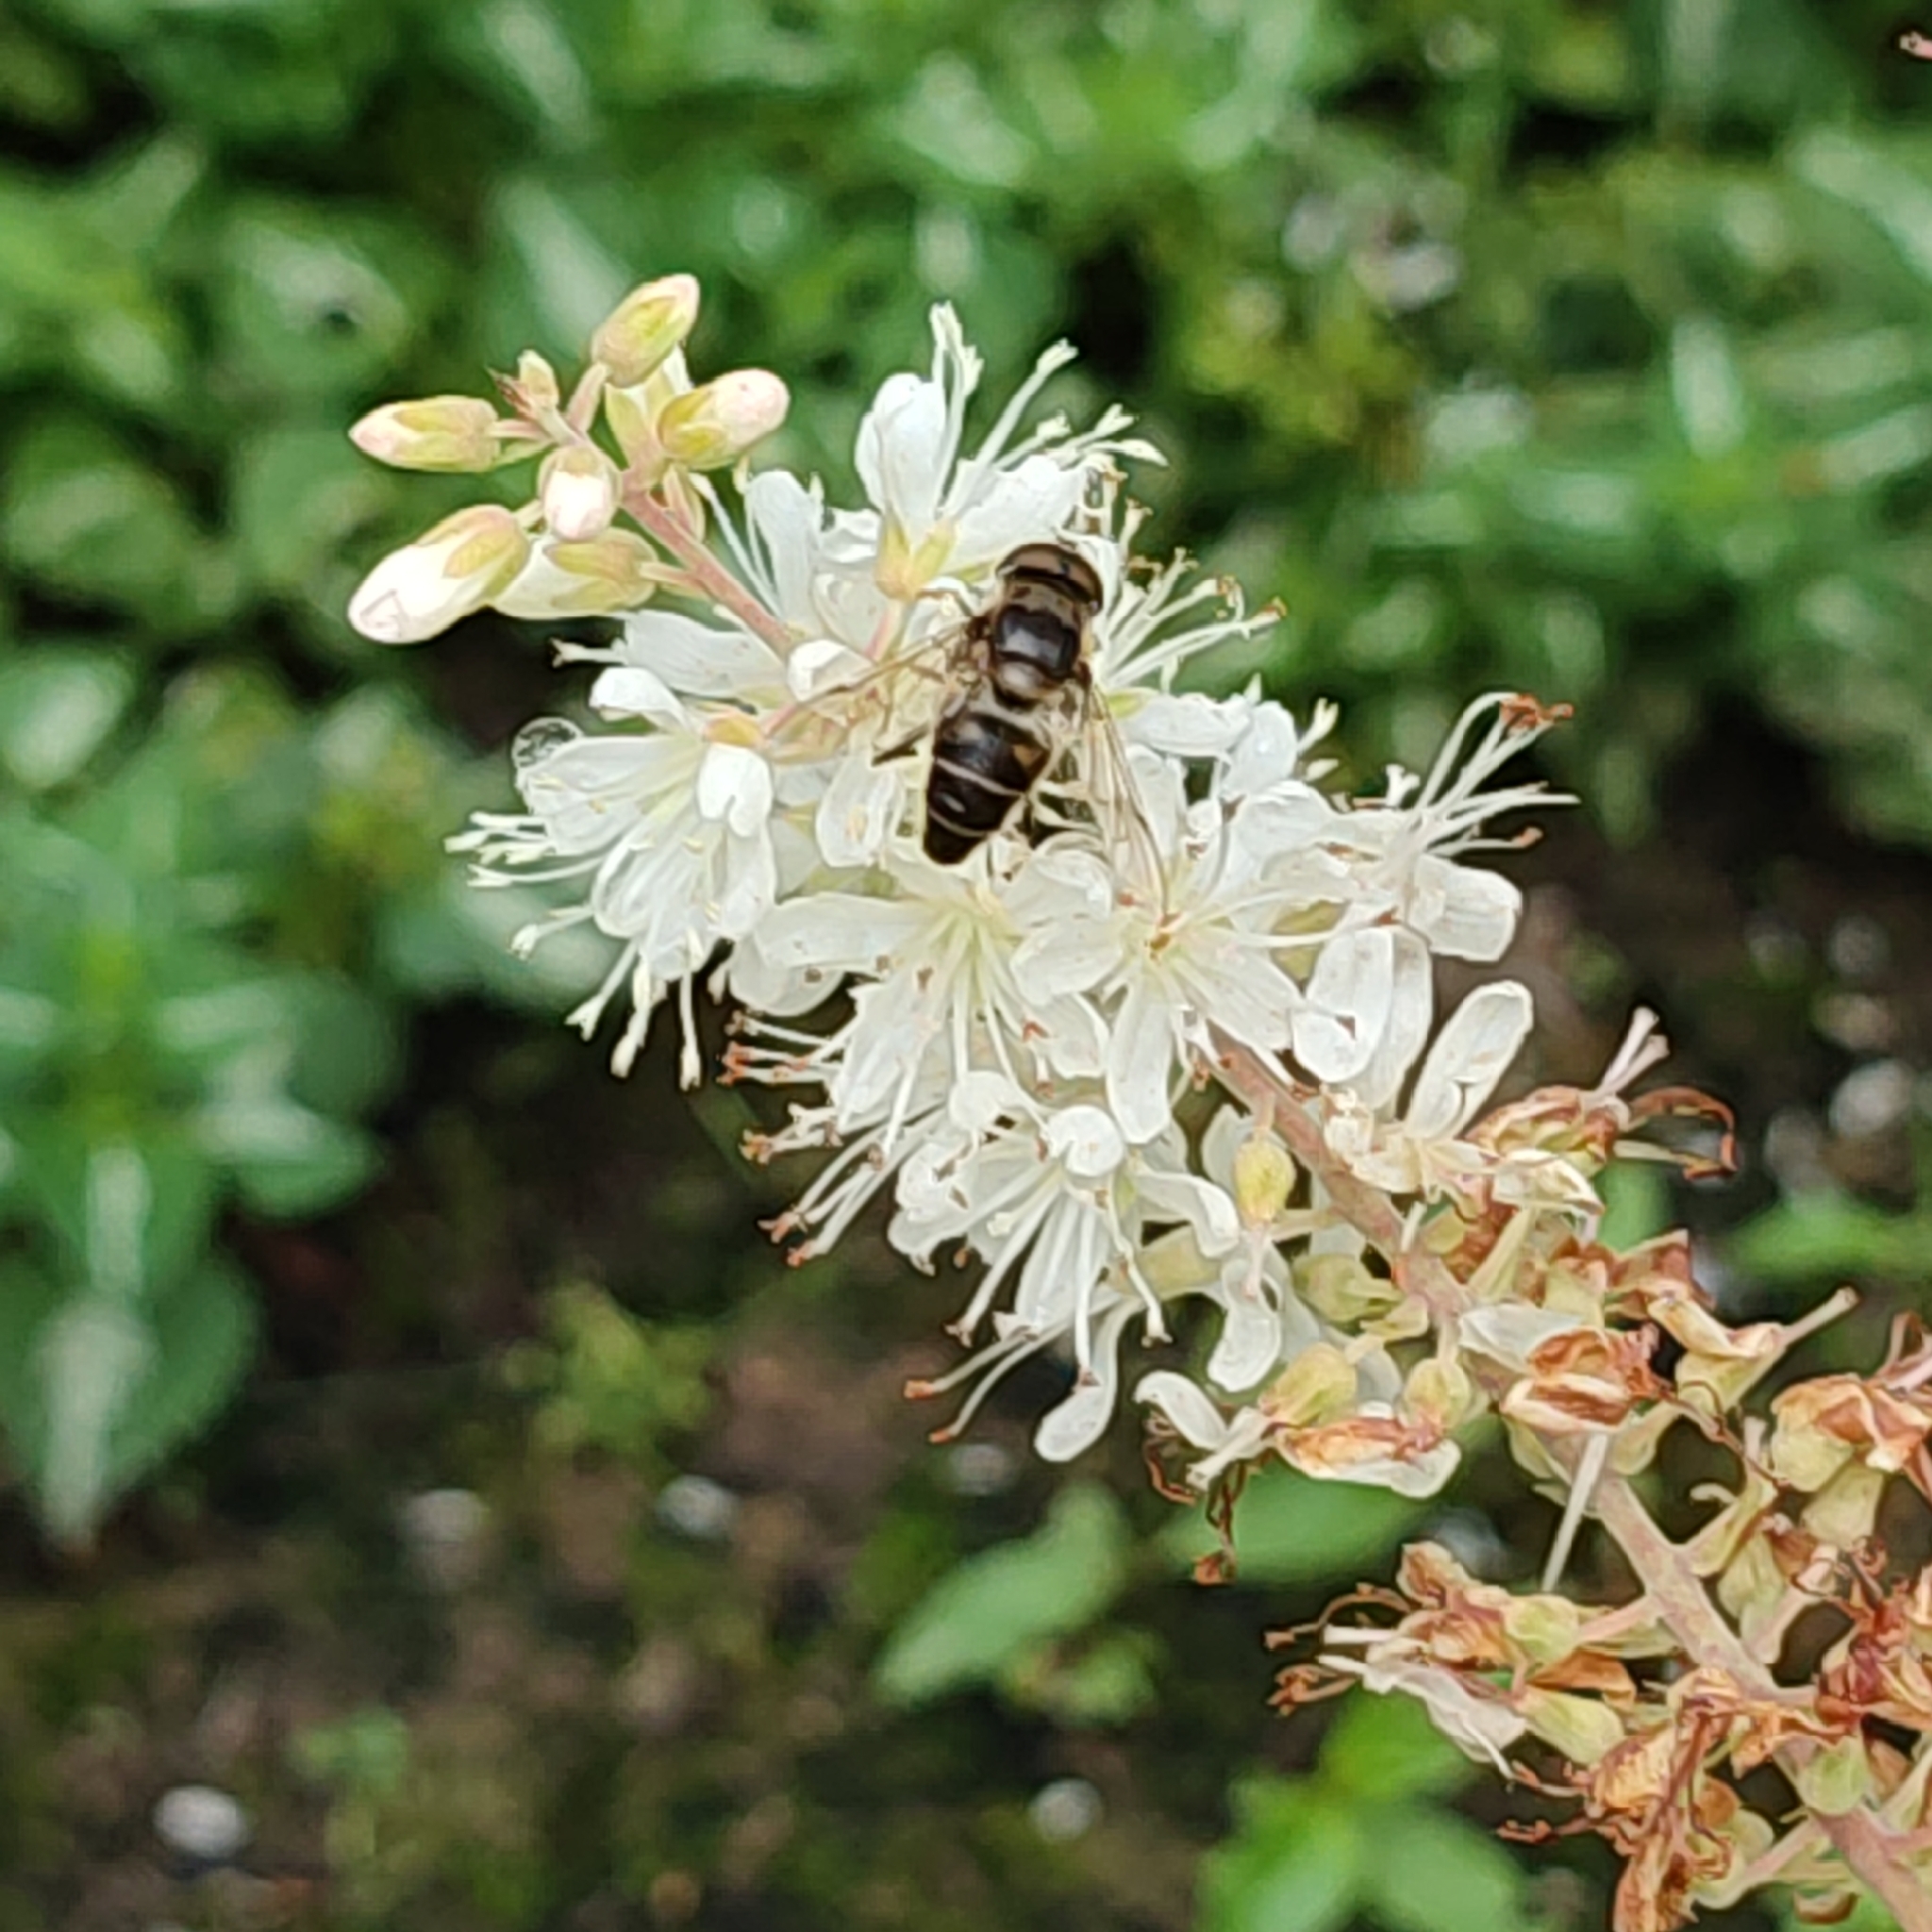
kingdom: Animalia
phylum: Arthropoda
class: Insecta
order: Diptera
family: Syrphidae
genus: Eristalis
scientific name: Eristalis pertinax
